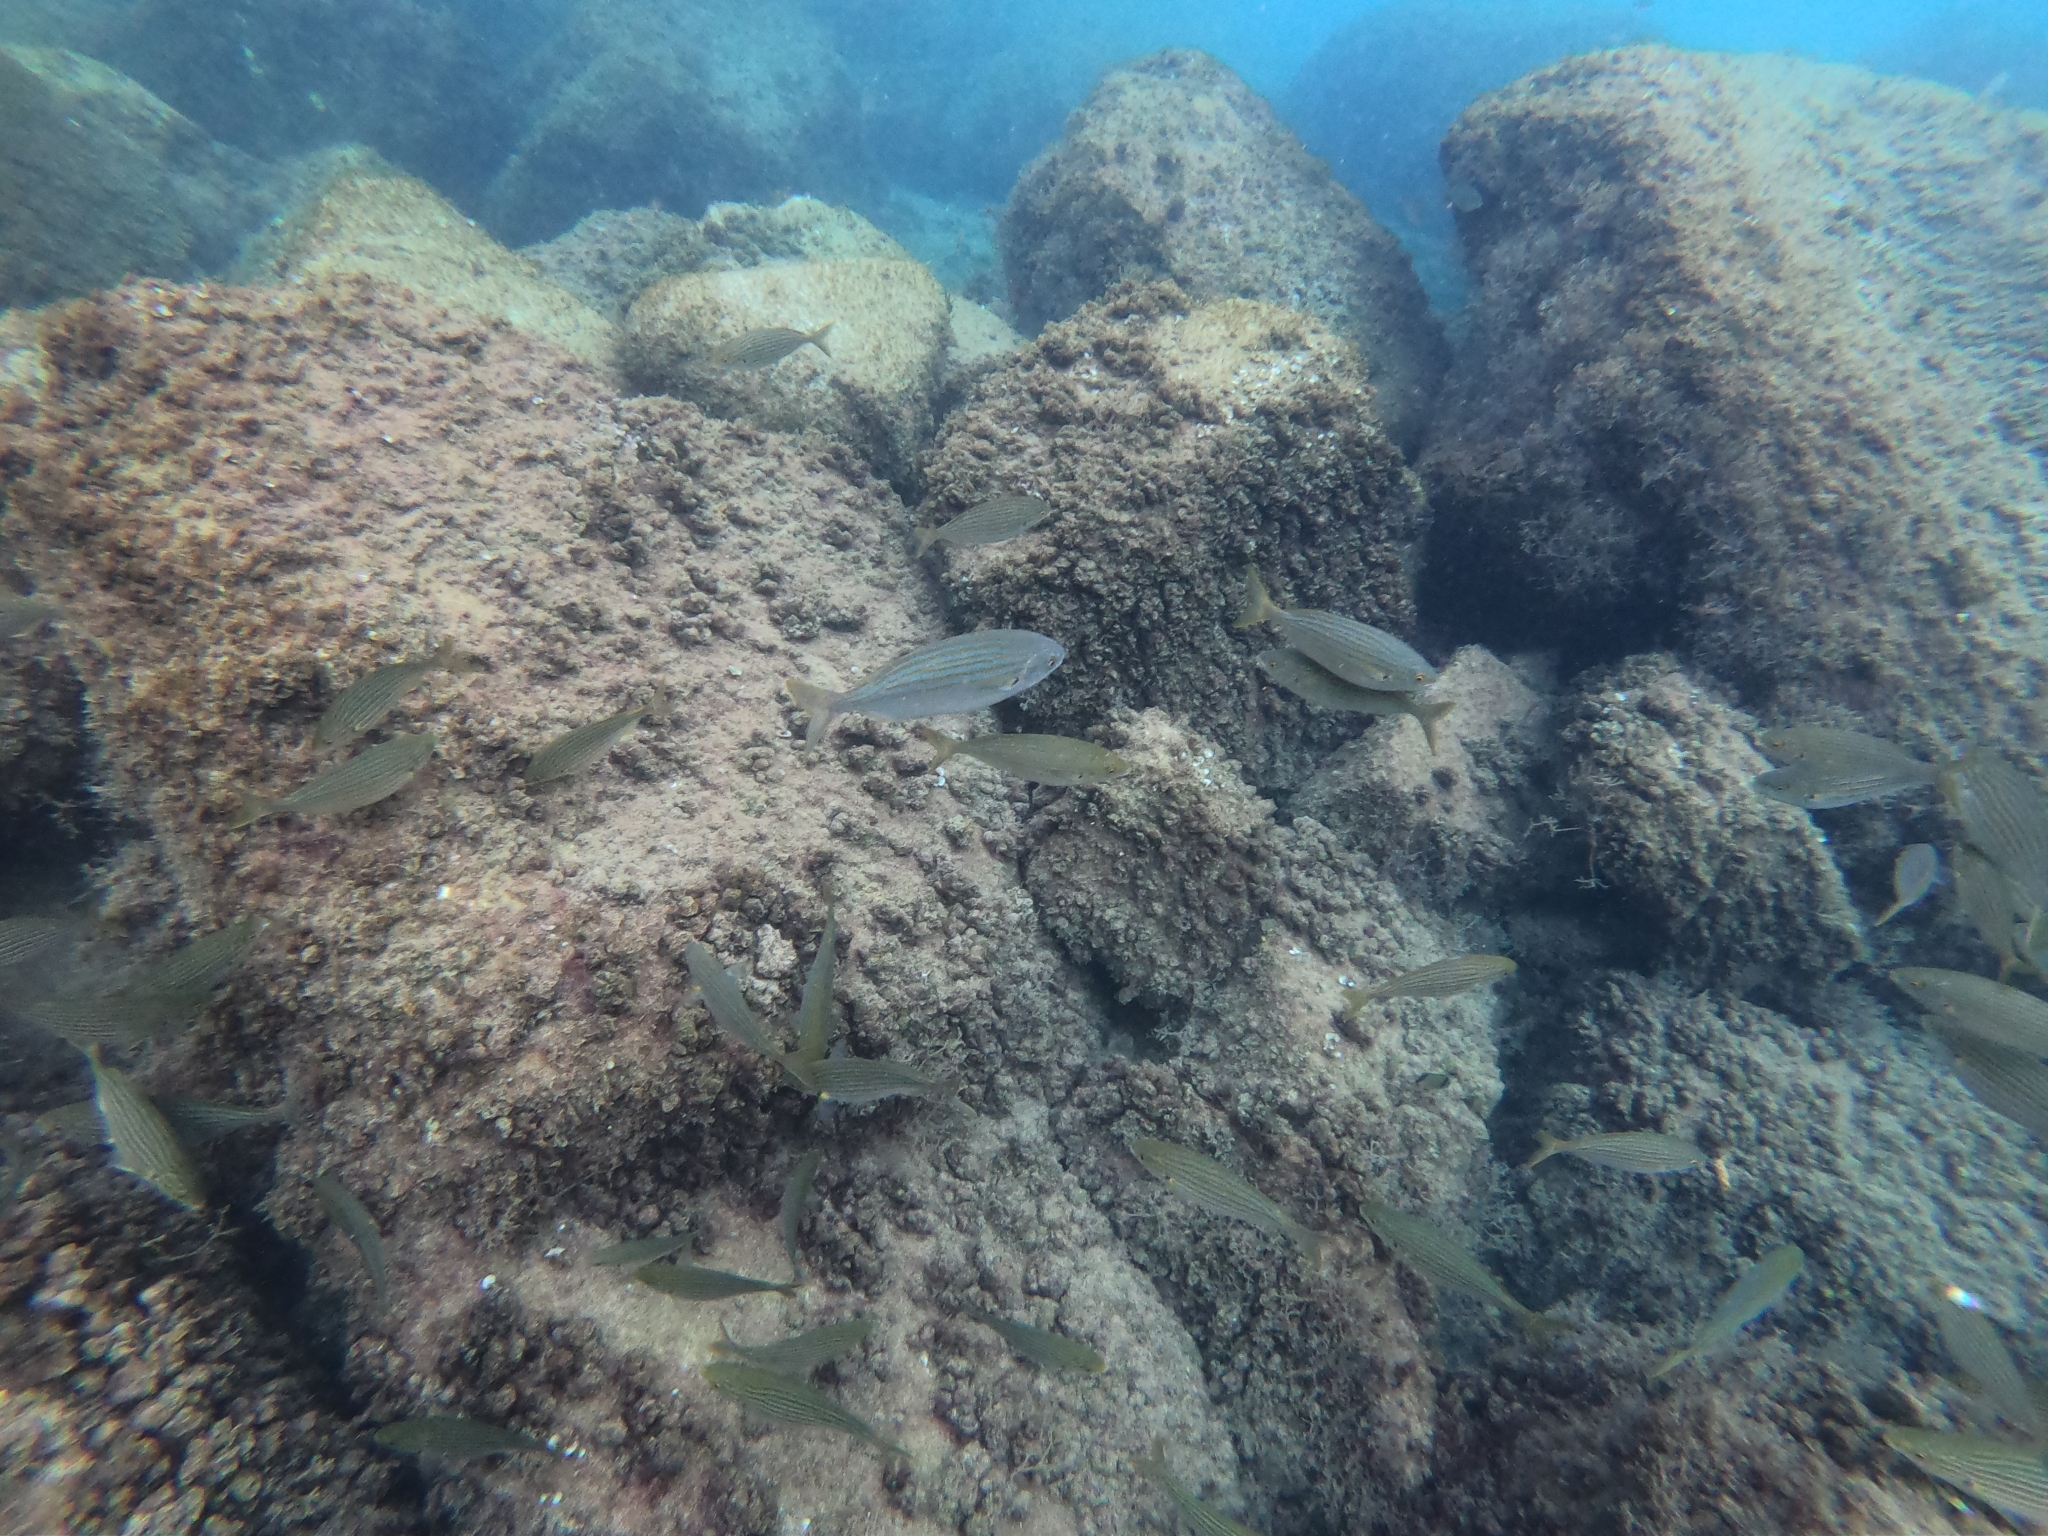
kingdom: Animalia
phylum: Chordata
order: Perciformes
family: Sparidae
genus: Sarpa
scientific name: Sarpa salpa
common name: Salema
